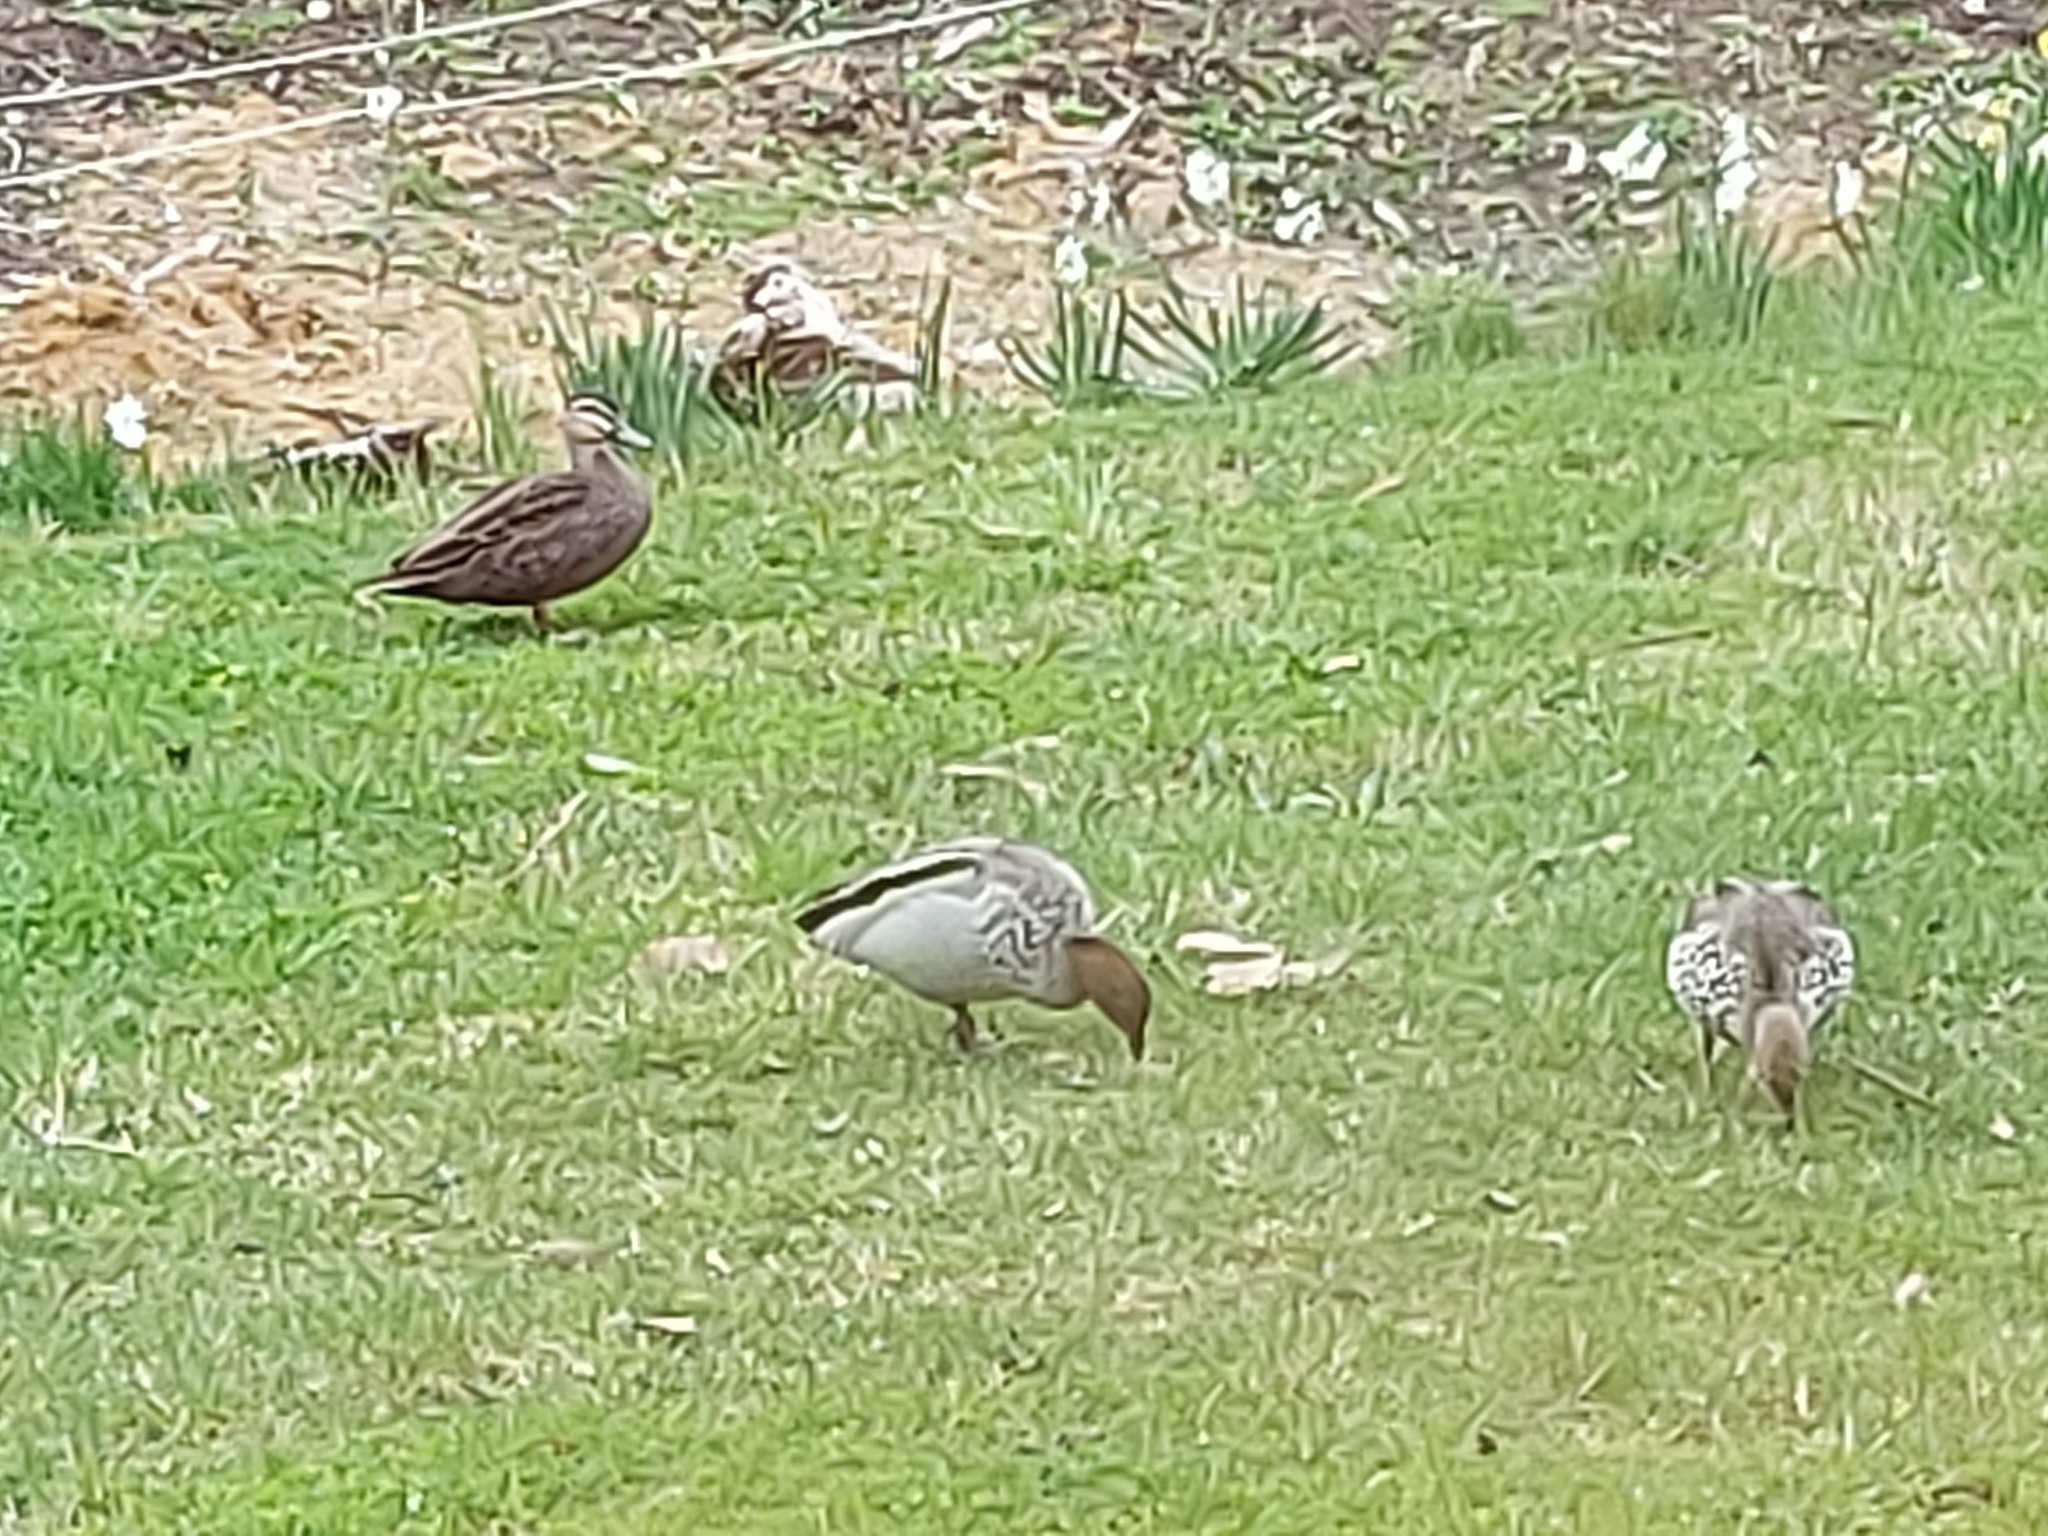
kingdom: Animalia
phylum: Chordata
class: Aves
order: Anseriformes
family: Anatidae
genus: Chenonetta
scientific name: Chenonetta jubata
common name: Maned duck
